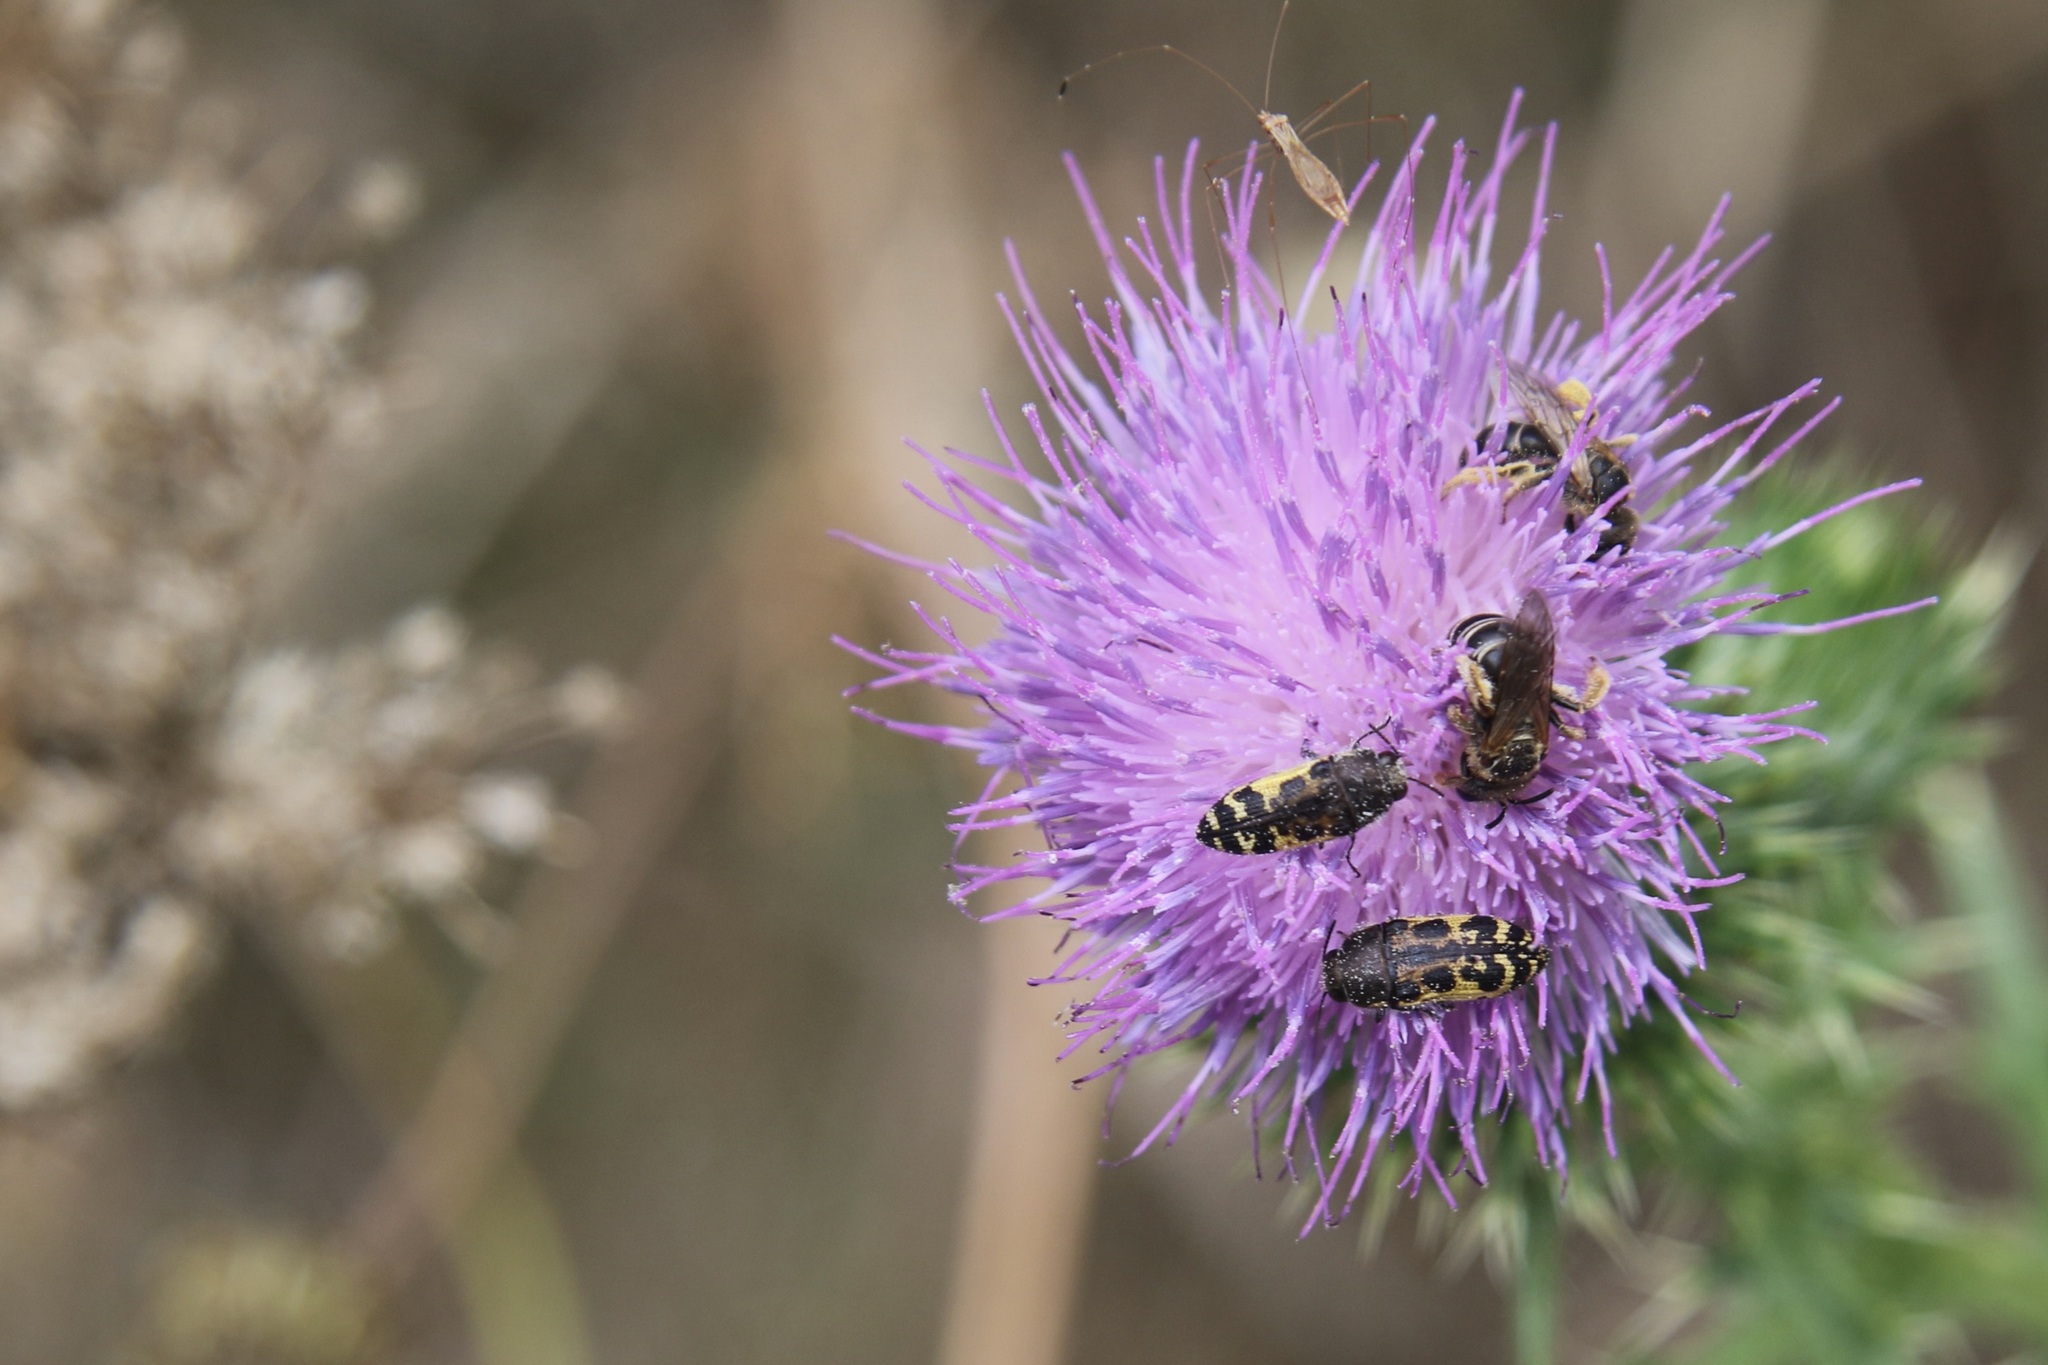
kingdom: Animalia
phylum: Arthropoda
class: Insecta
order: Coleoptera
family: Buprestidae
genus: Acmaeodera
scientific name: Acmaeodera pulchella
